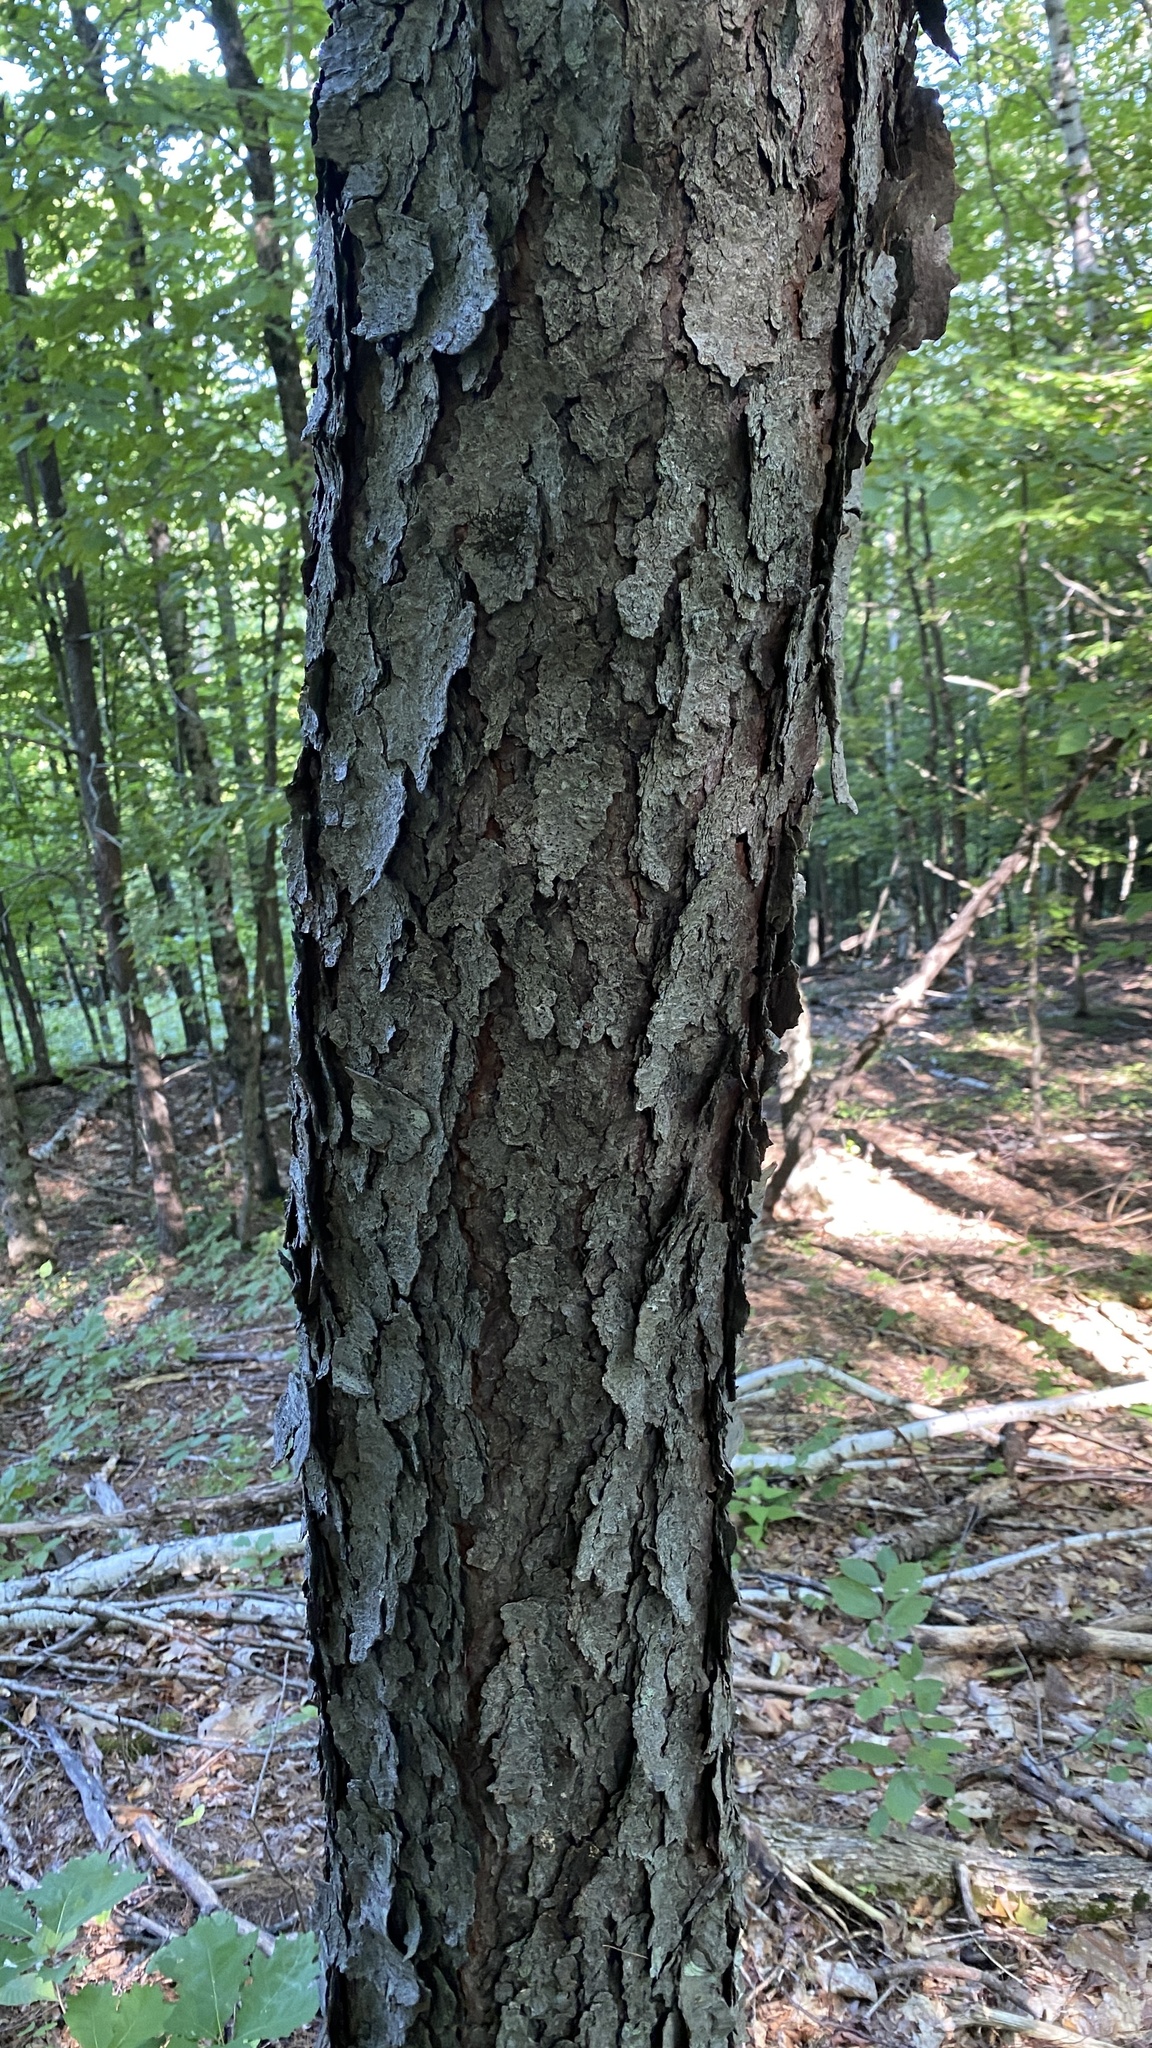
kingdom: Plantae
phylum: Tracheophyta
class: Magnoliopsida
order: Rosales
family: Rosaceae
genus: Prunus
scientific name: Prunus serotina
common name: Black cherry
